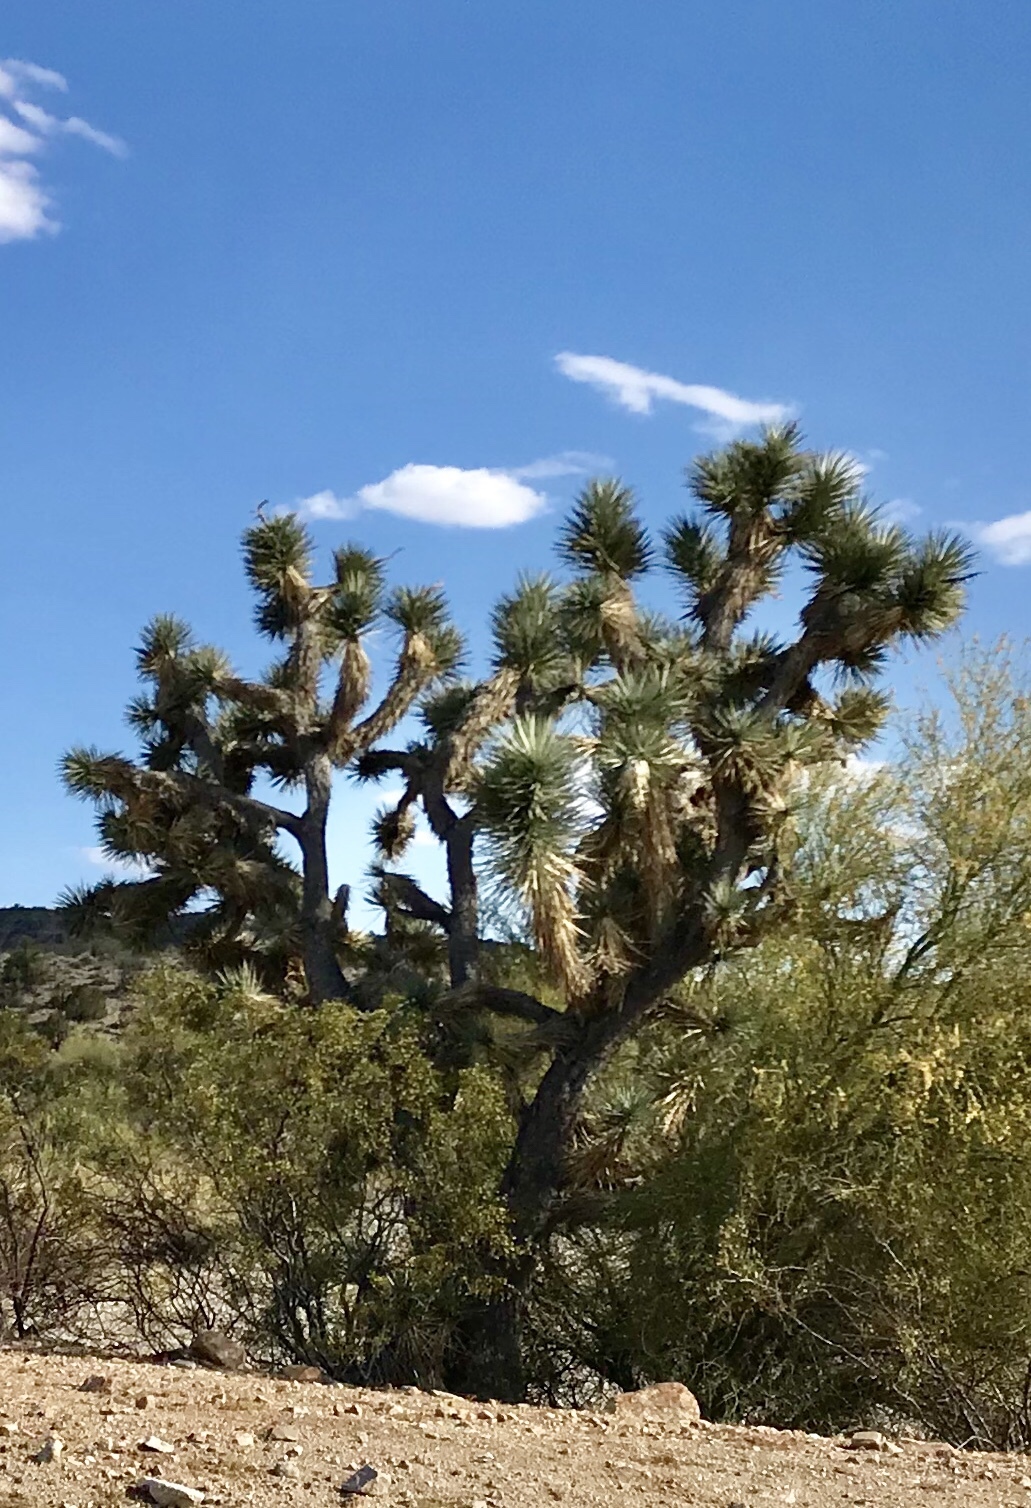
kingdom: Plantae
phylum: Tracheophyta
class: Liliopsida
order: Asparagales
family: Asparagaceae
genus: Yucca
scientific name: Yucca brevifolia
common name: Joshua tree
